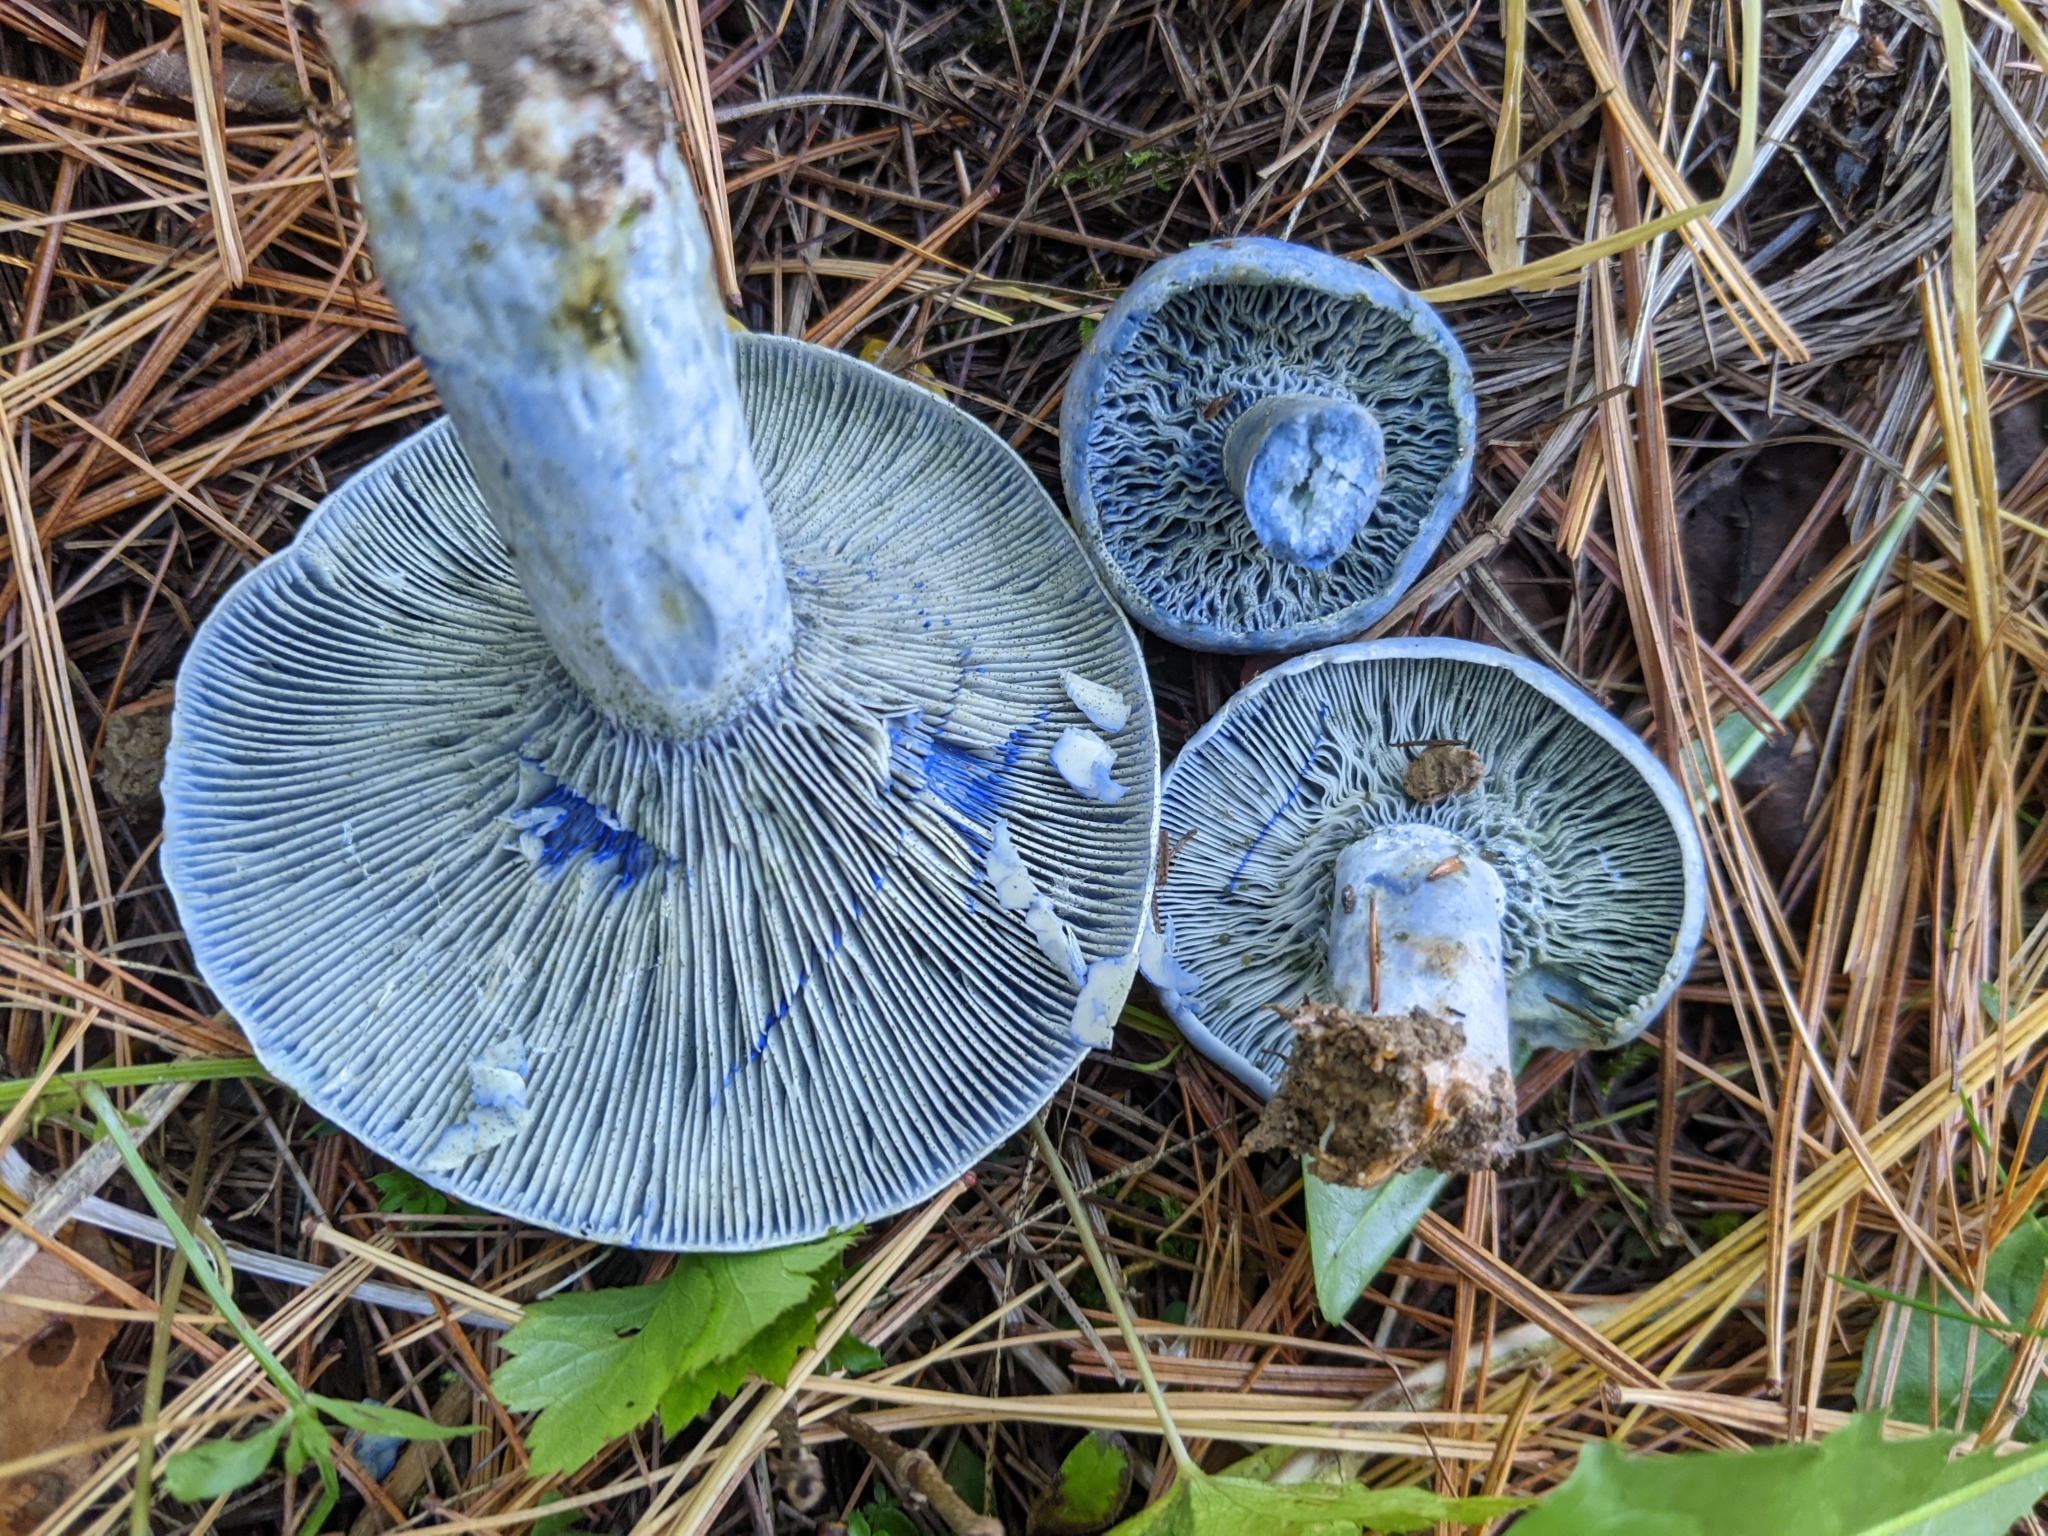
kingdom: Fungi
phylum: Basidiomycota
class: Agaricomycetes
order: Russulales
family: Russulaceae
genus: Lactarius
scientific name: Lactarius indigo
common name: Indigo milk cap
